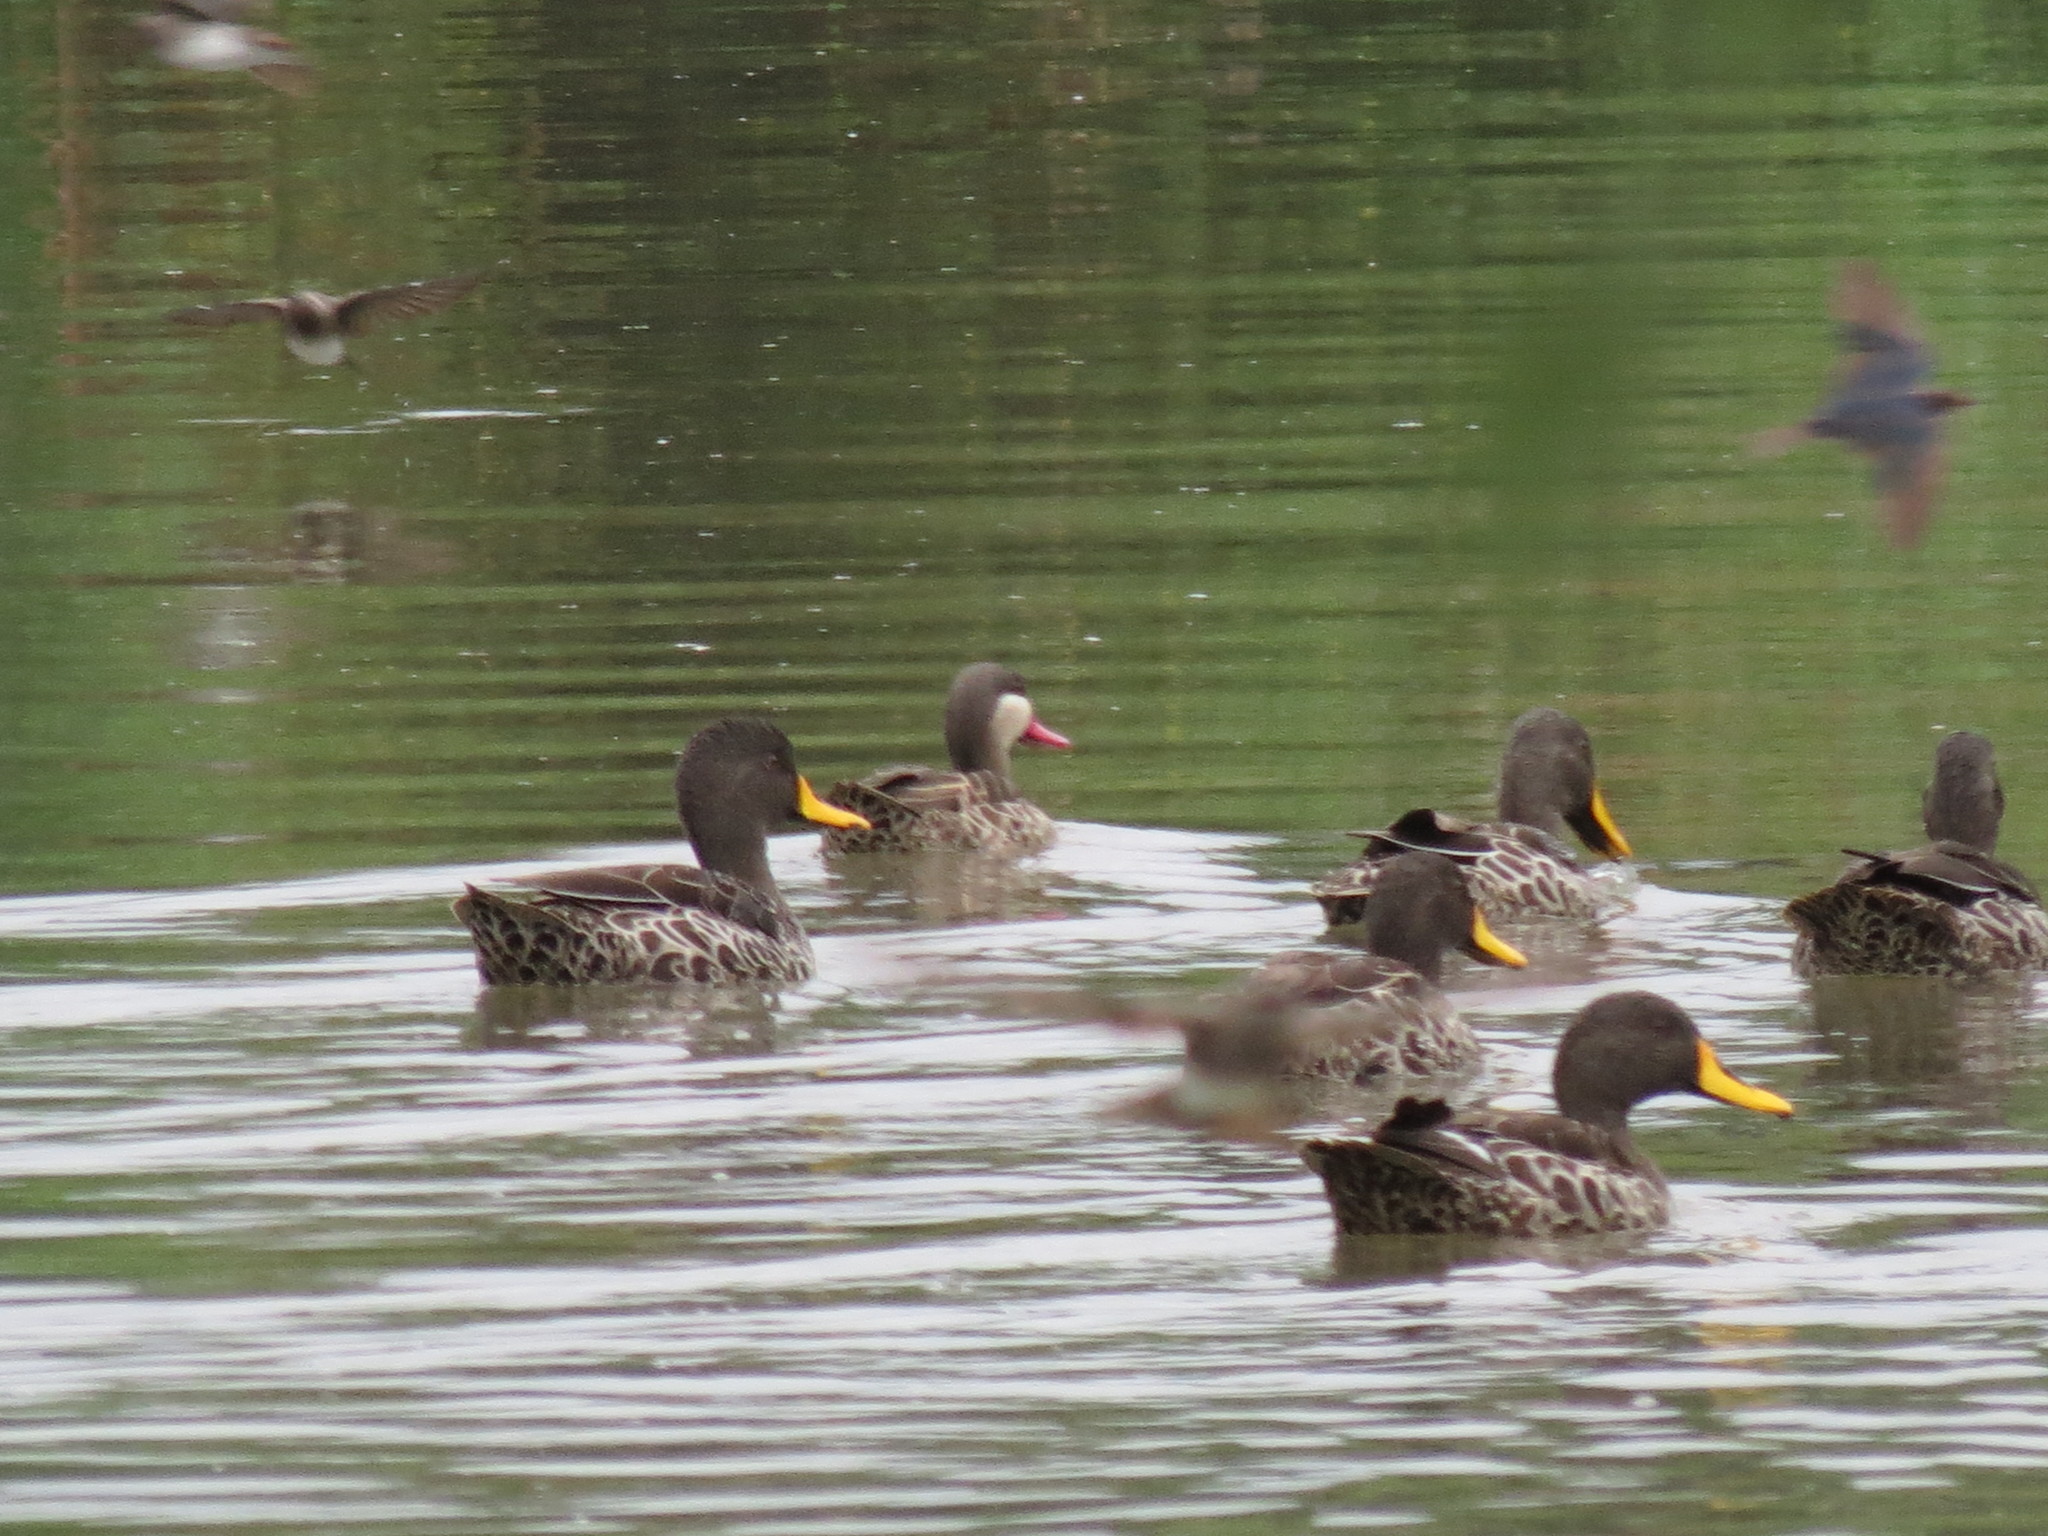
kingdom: Animalia
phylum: Chordata
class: Aves
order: Anseriformes
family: Anatidae
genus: Anas
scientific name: Anas undulata
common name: Yellow-billed duck
